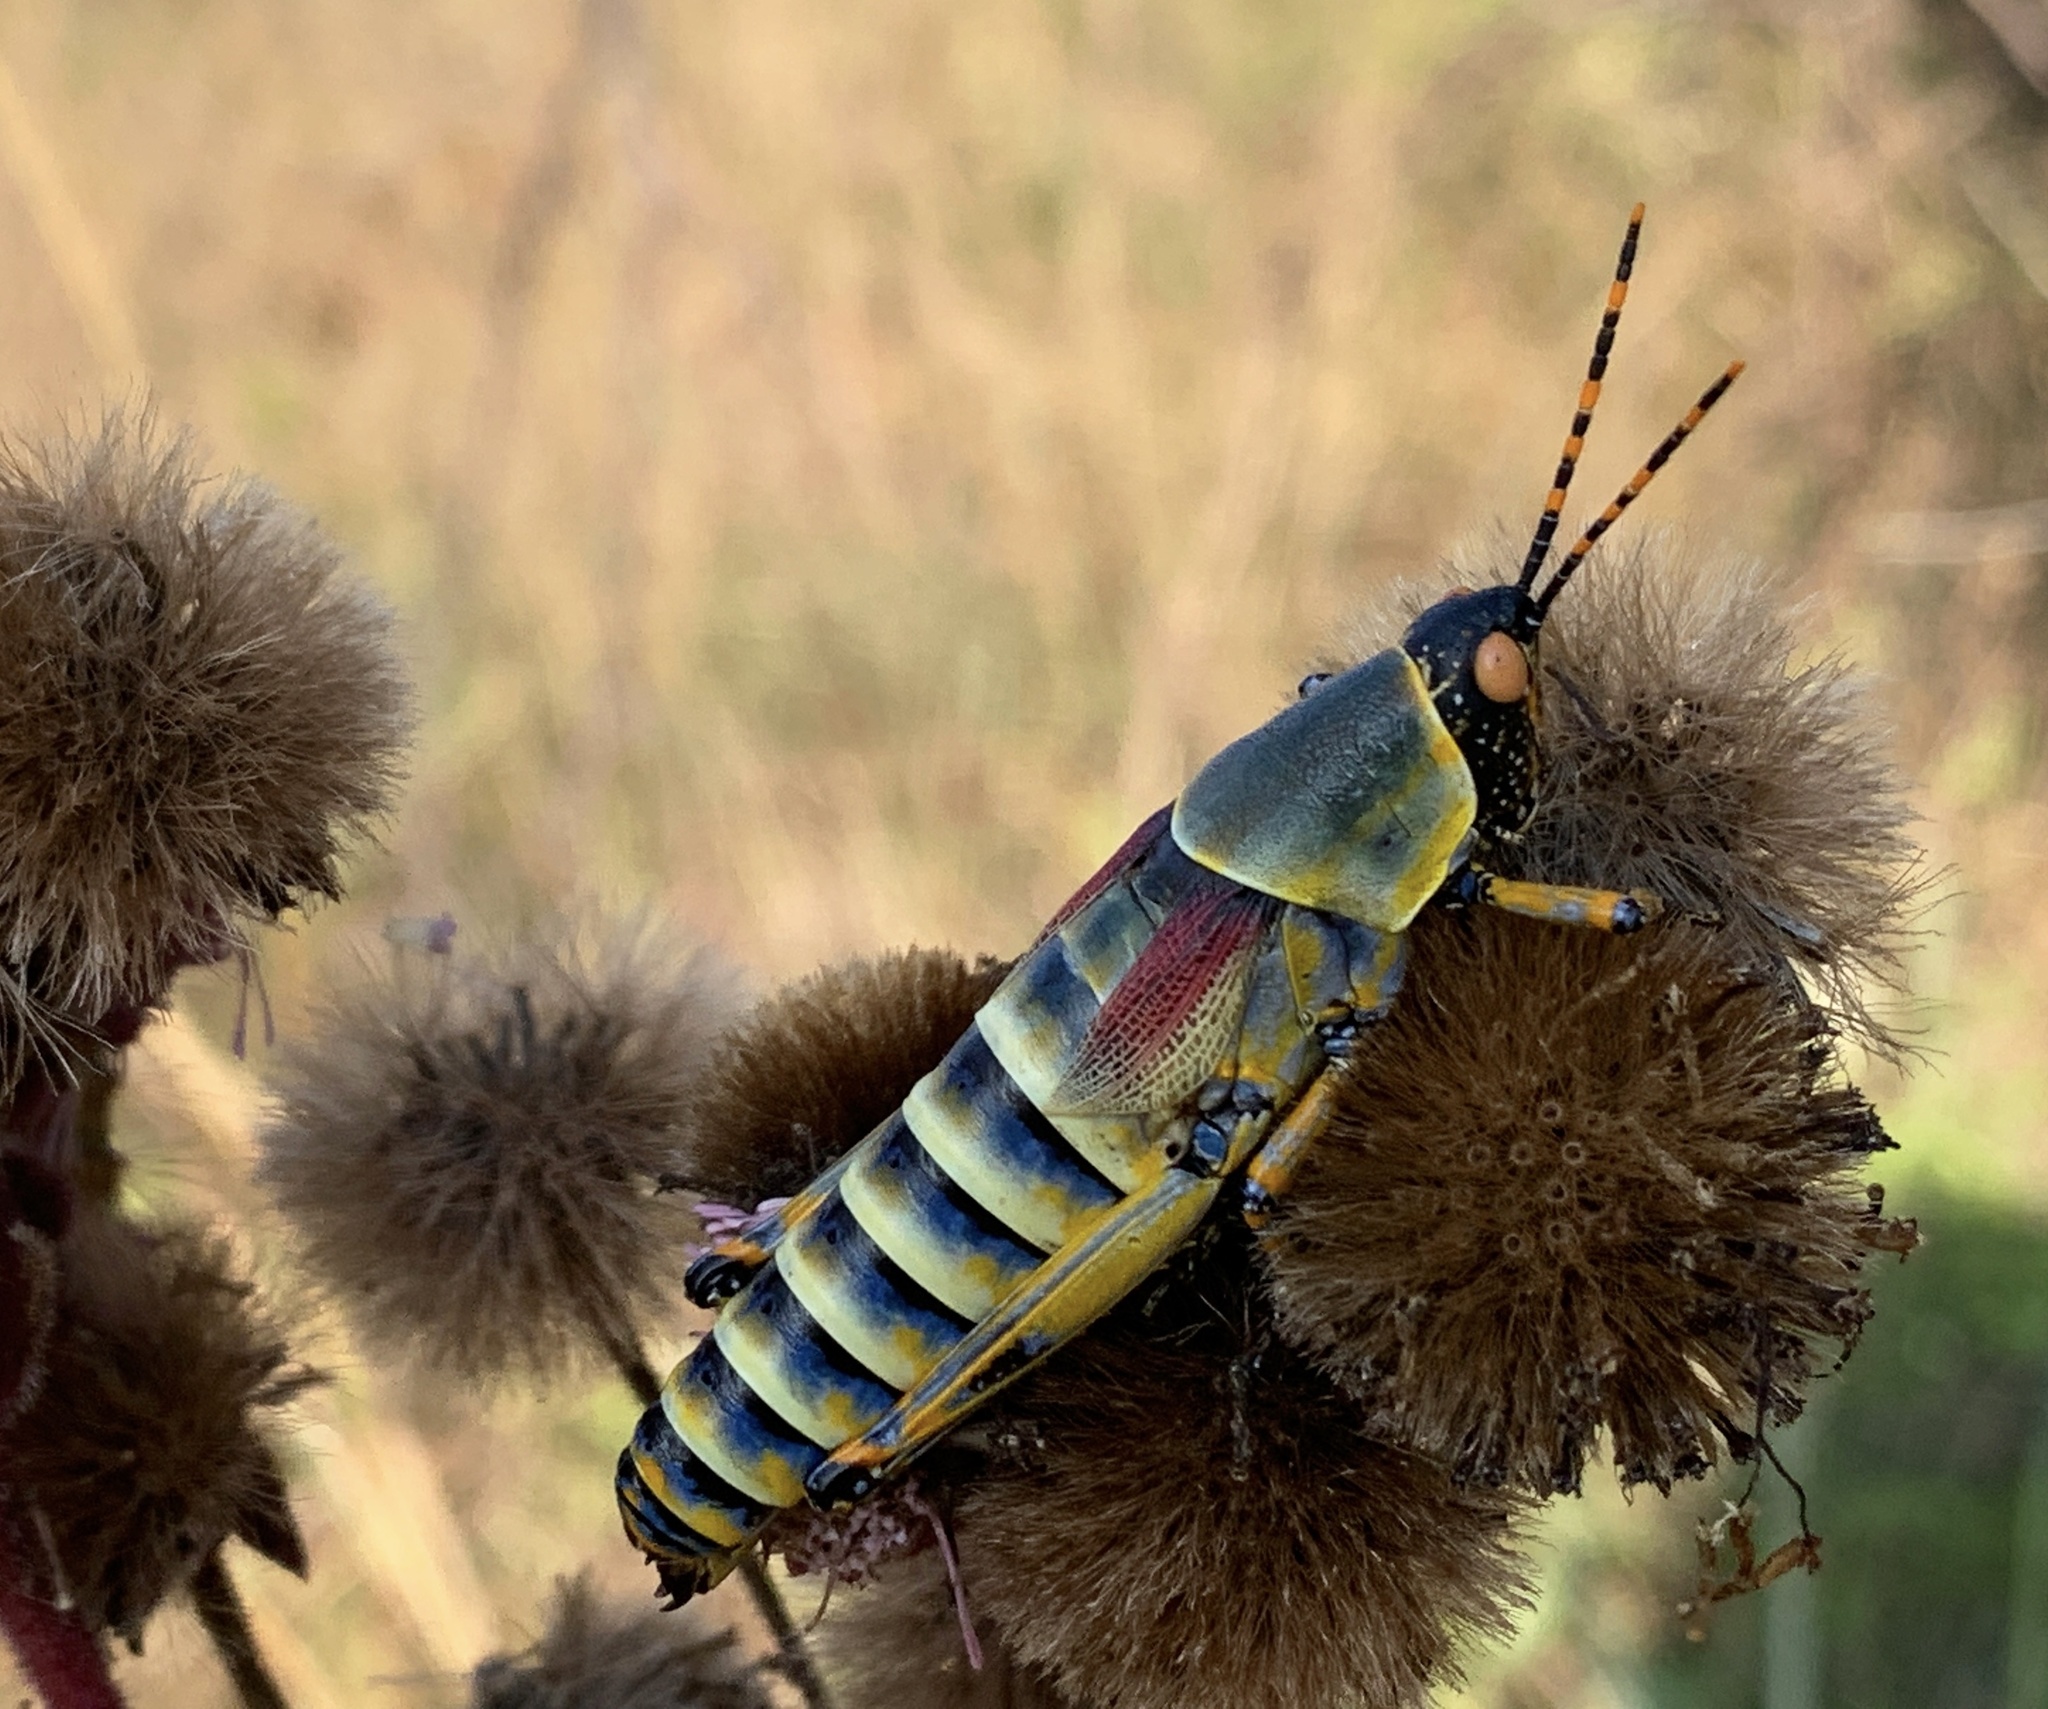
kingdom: Animalia
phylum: Arthropoda
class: Insecta
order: Orthoptera
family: Pyrgomorphidae
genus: Zonocerus
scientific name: Zonocerus elegans
